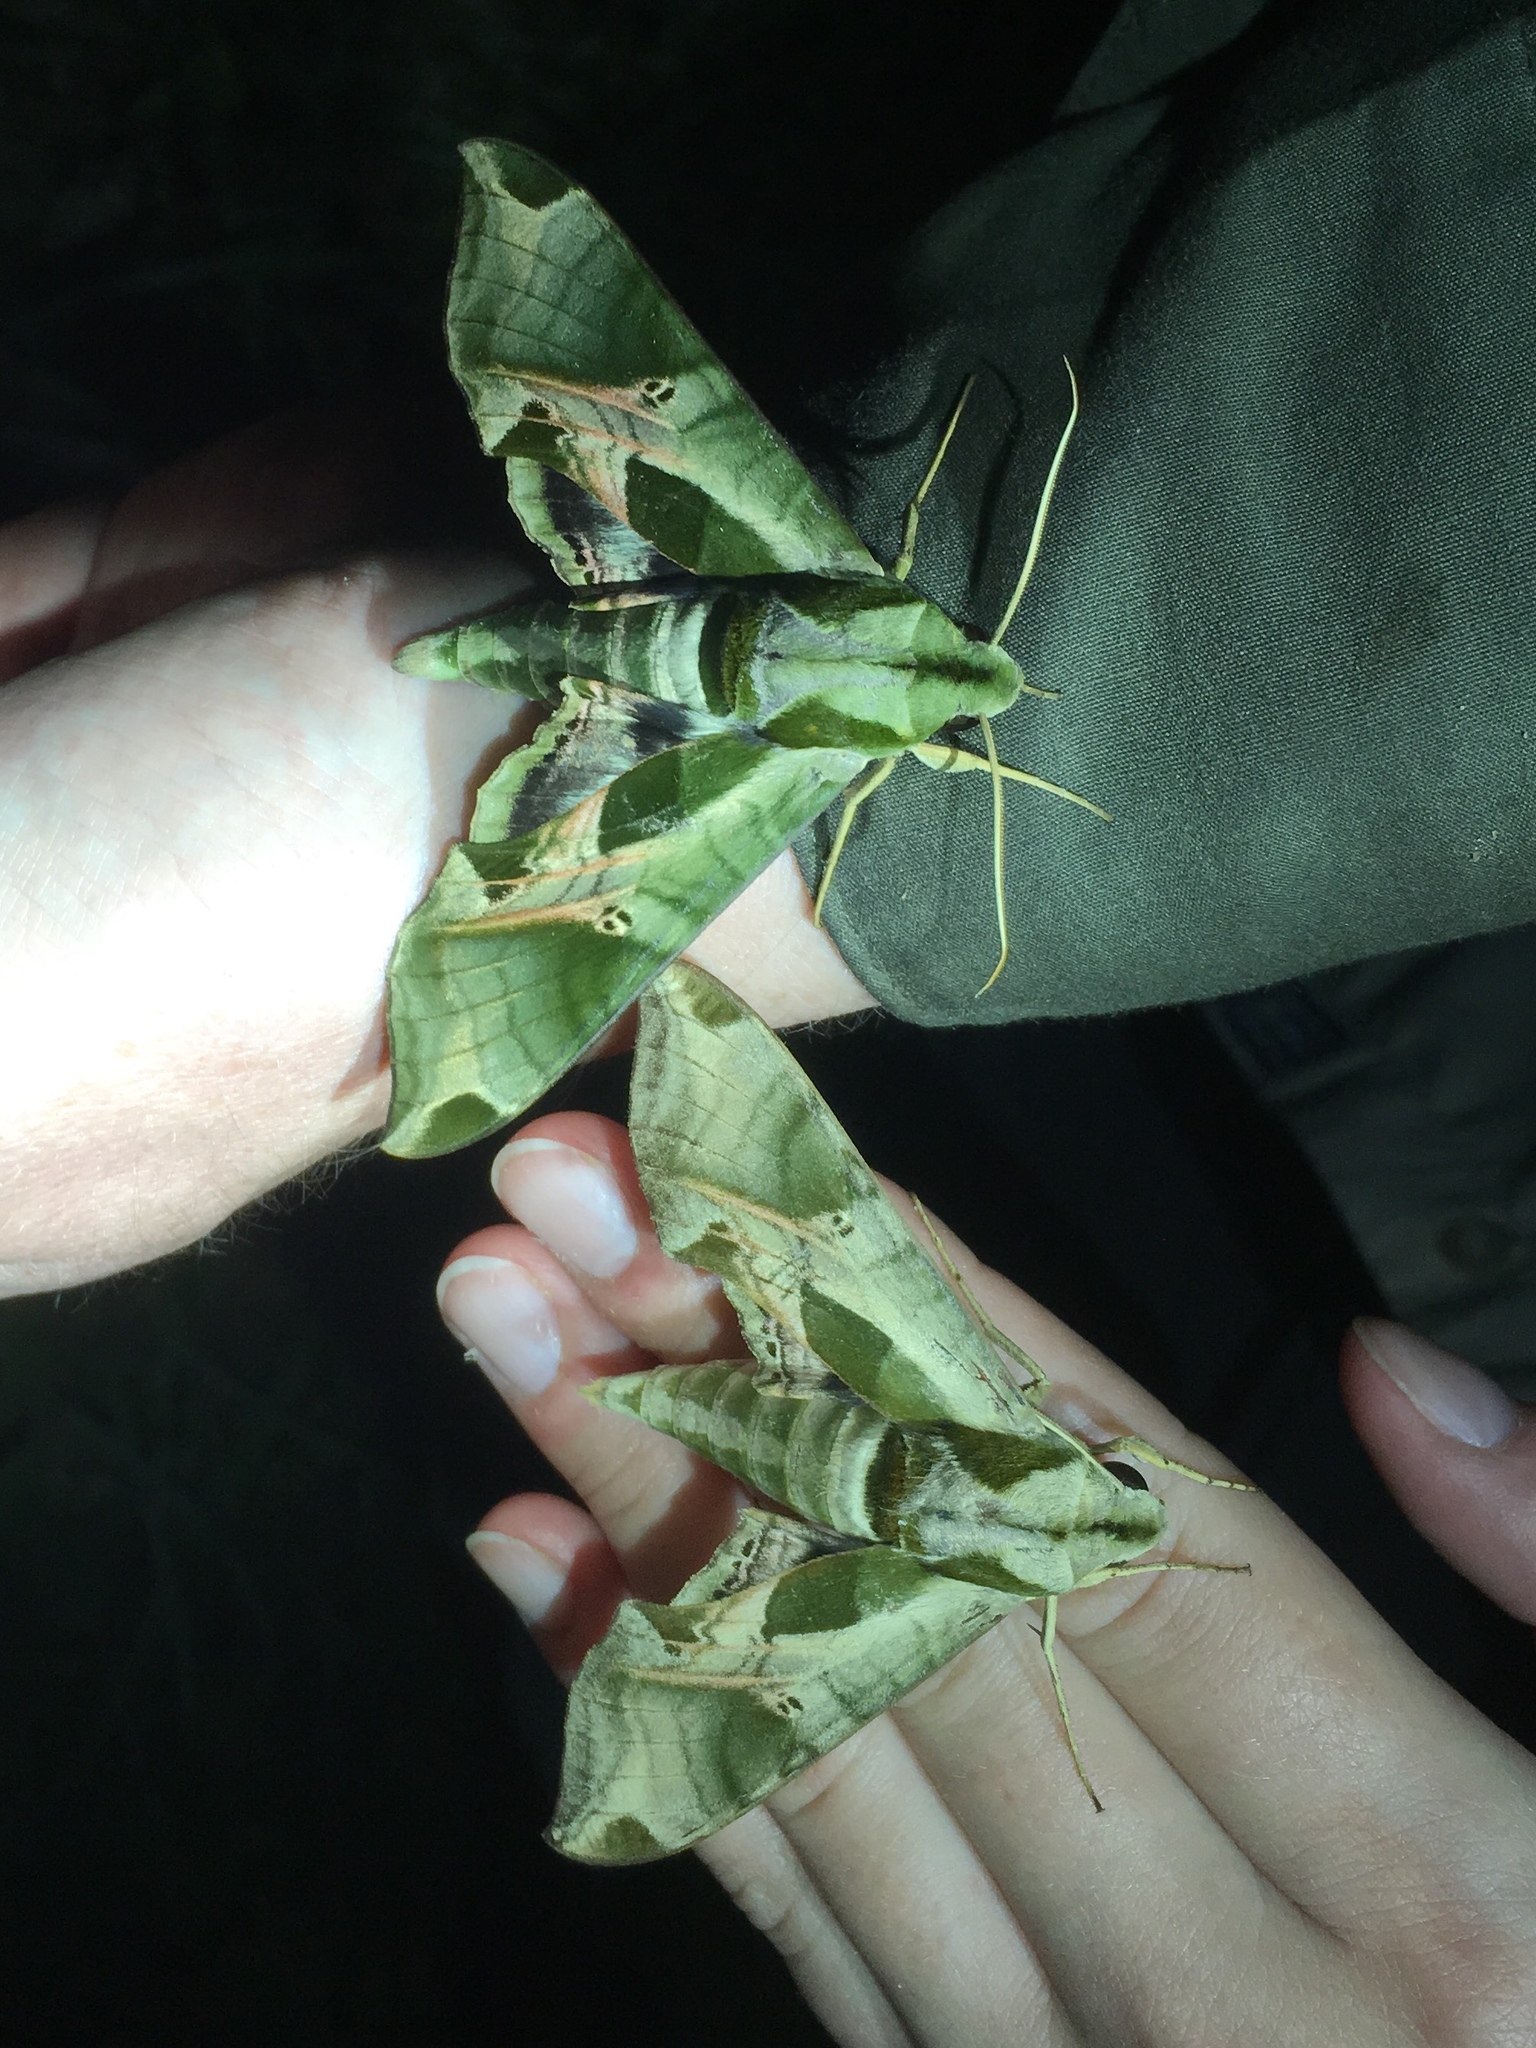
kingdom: Animalia
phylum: Arthropoda
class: Insecta
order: Lepidoptera
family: Sphingidae
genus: Eumorpha
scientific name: Eumorpha pandorus
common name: Pandora sphinx
